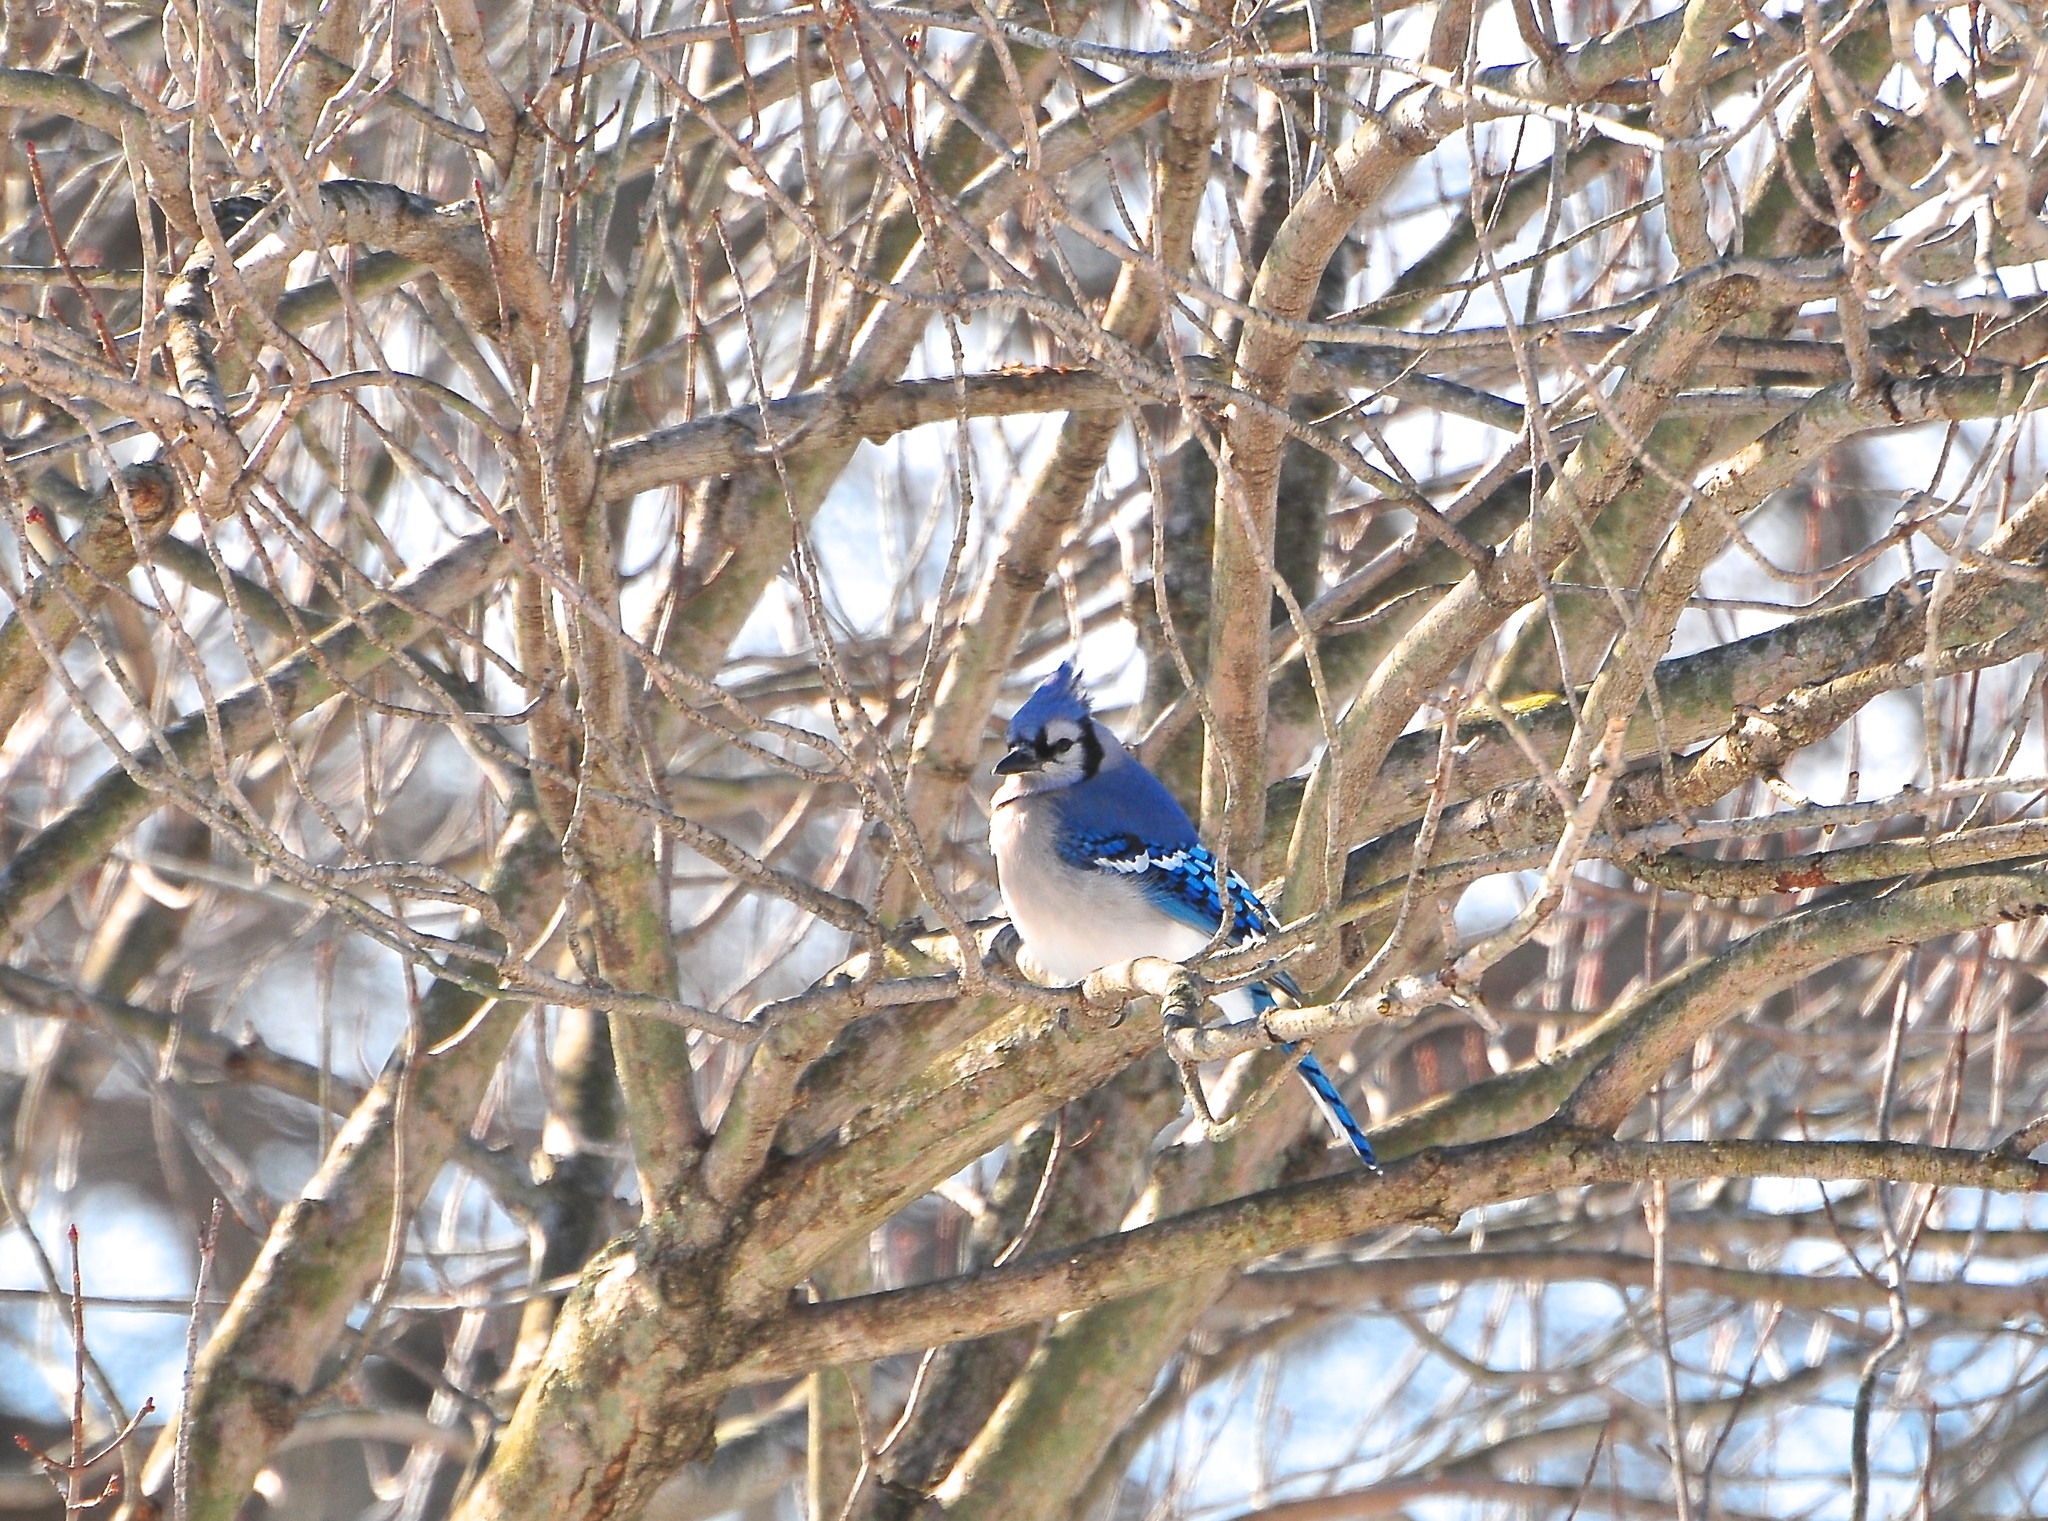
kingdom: Animalia
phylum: Chordata
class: Aves
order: Passeriformes
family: Corvidae
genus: Cyanocitta
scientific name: Cyanocitta cristata
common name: Blue jay
